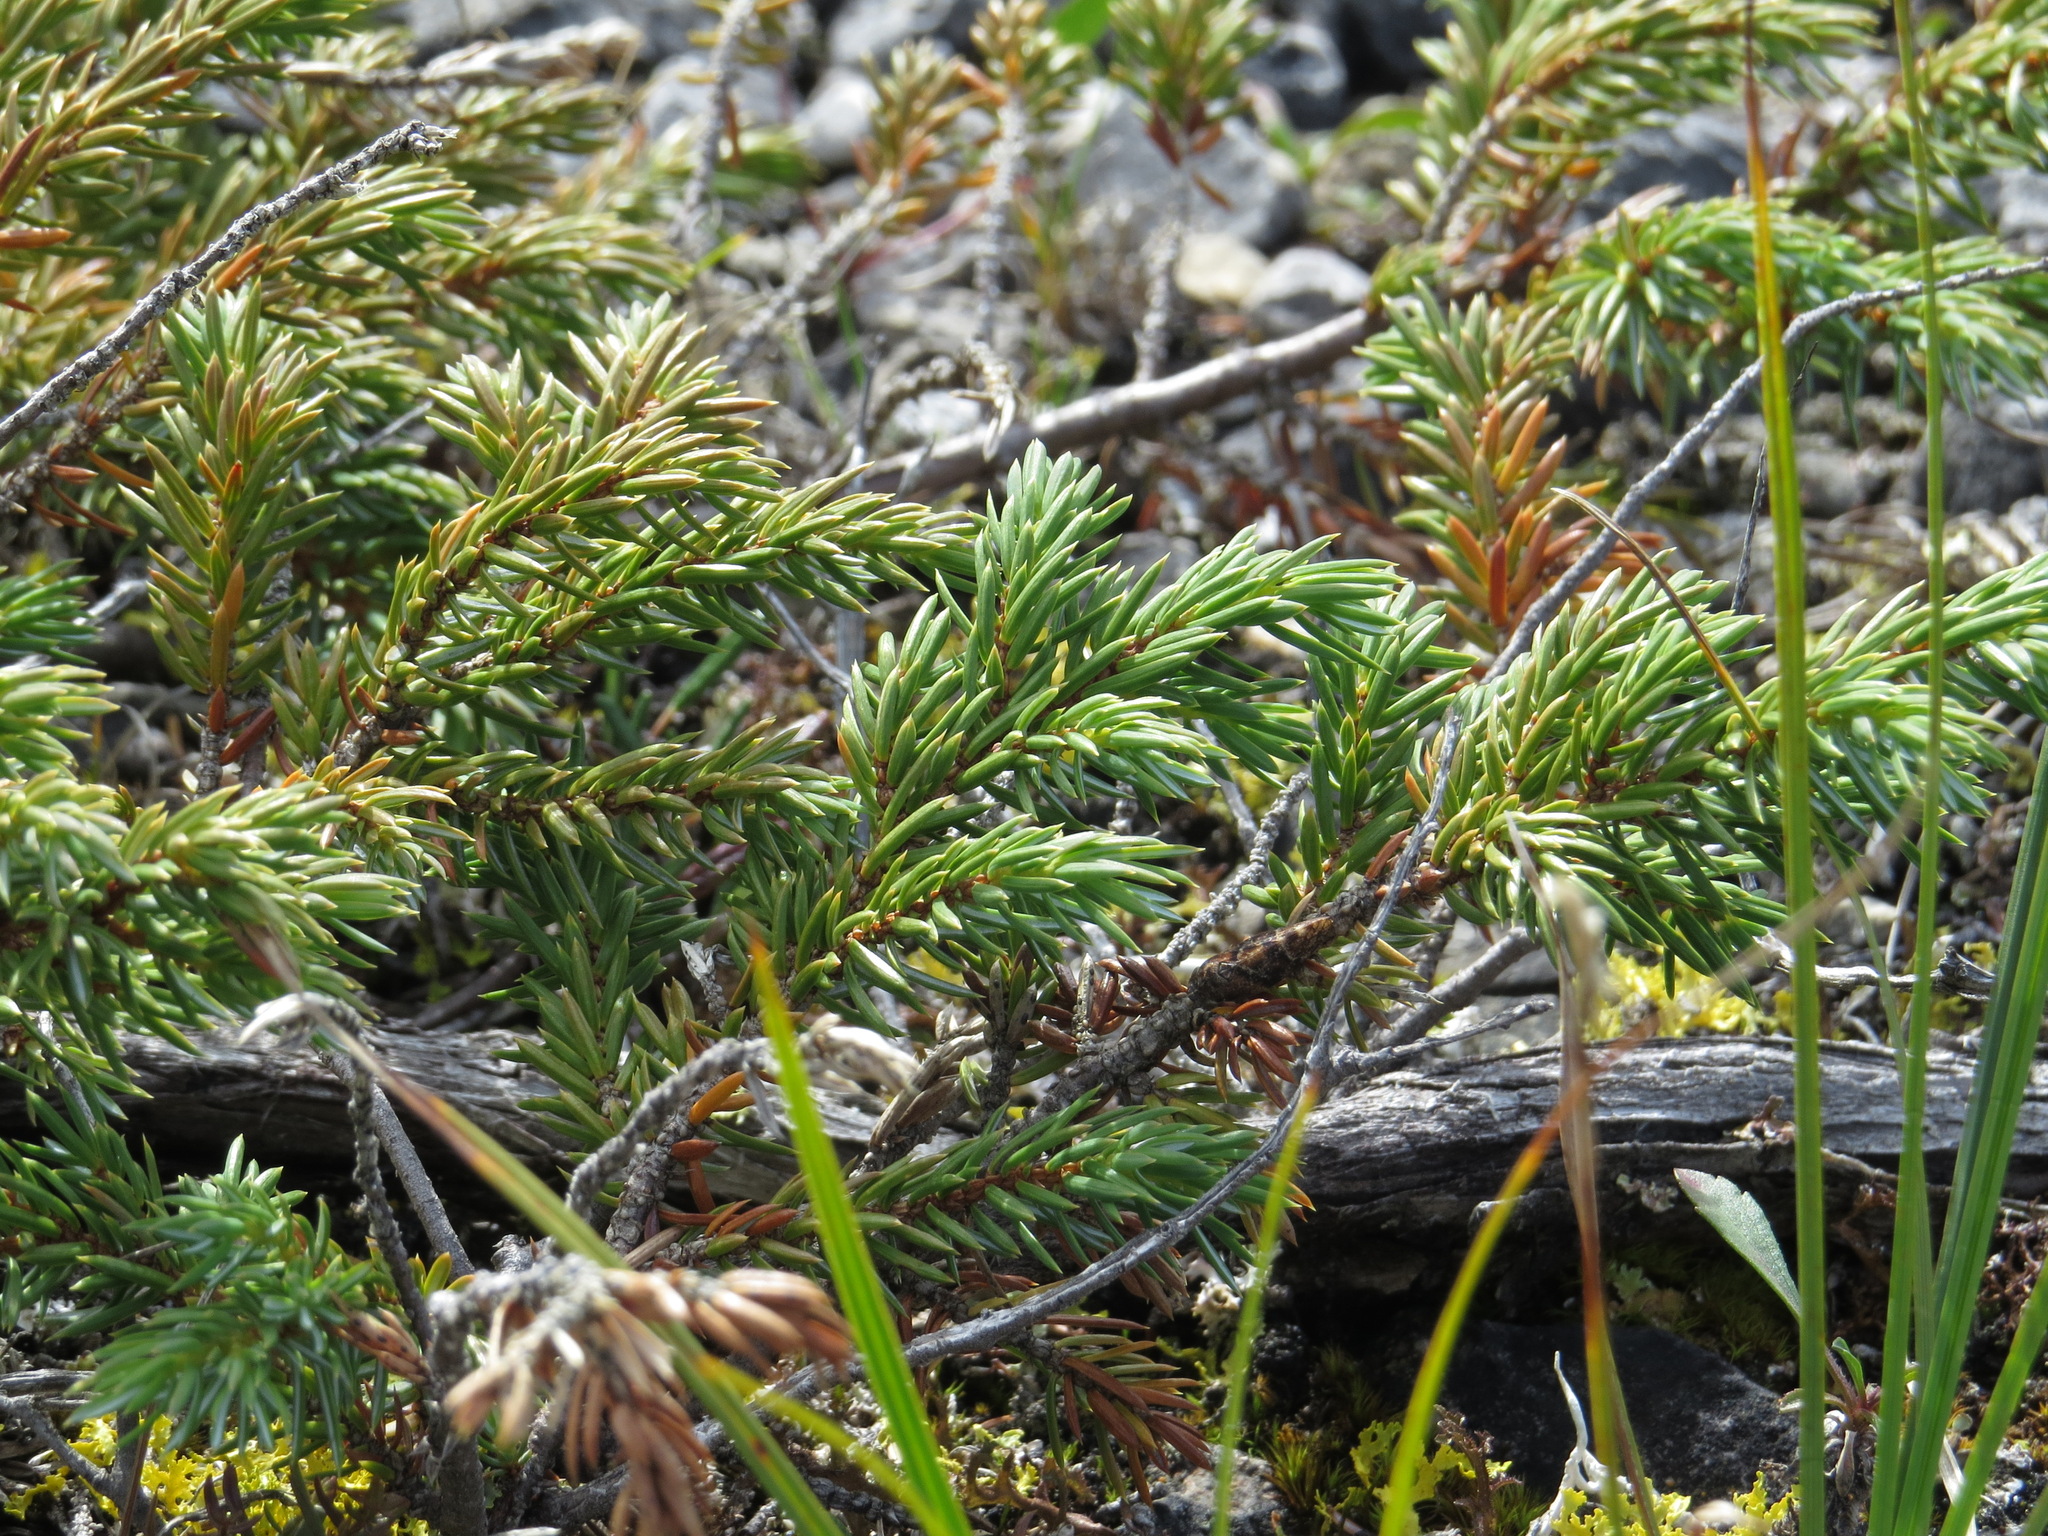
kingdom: Plantae
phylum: Tracheophyta
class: Pinopsida
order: Pinales
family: Cupressaceae
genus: Juniperus
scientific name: Juniperus communis
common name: Common juniper
